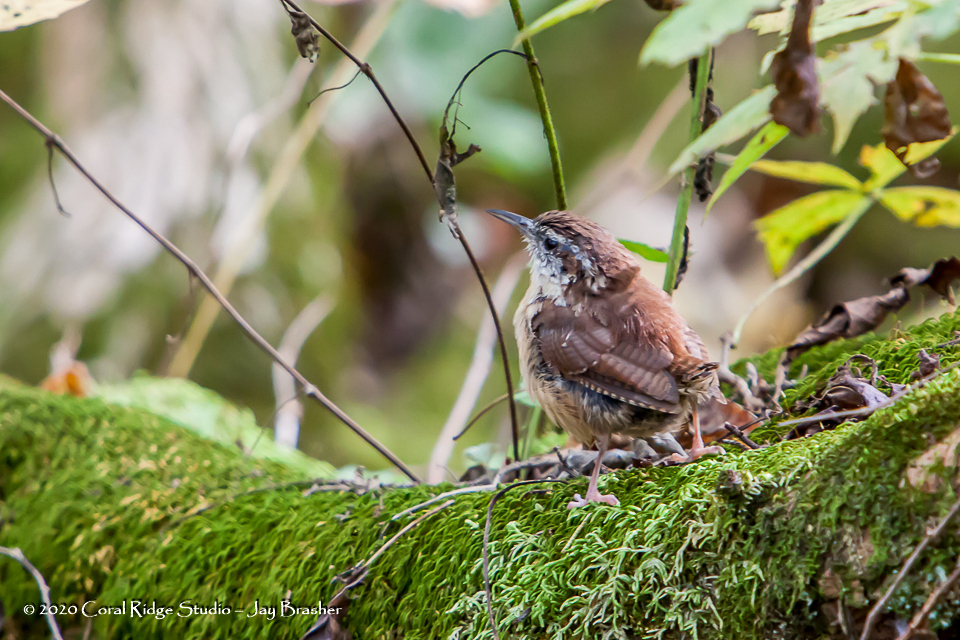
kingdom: Animalia
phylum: Chordata
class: Aves
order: Passeriformes
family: Troglodytidae
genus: Thryothorus
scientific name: Thryothorus ludovicianus
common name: Carolina wren
